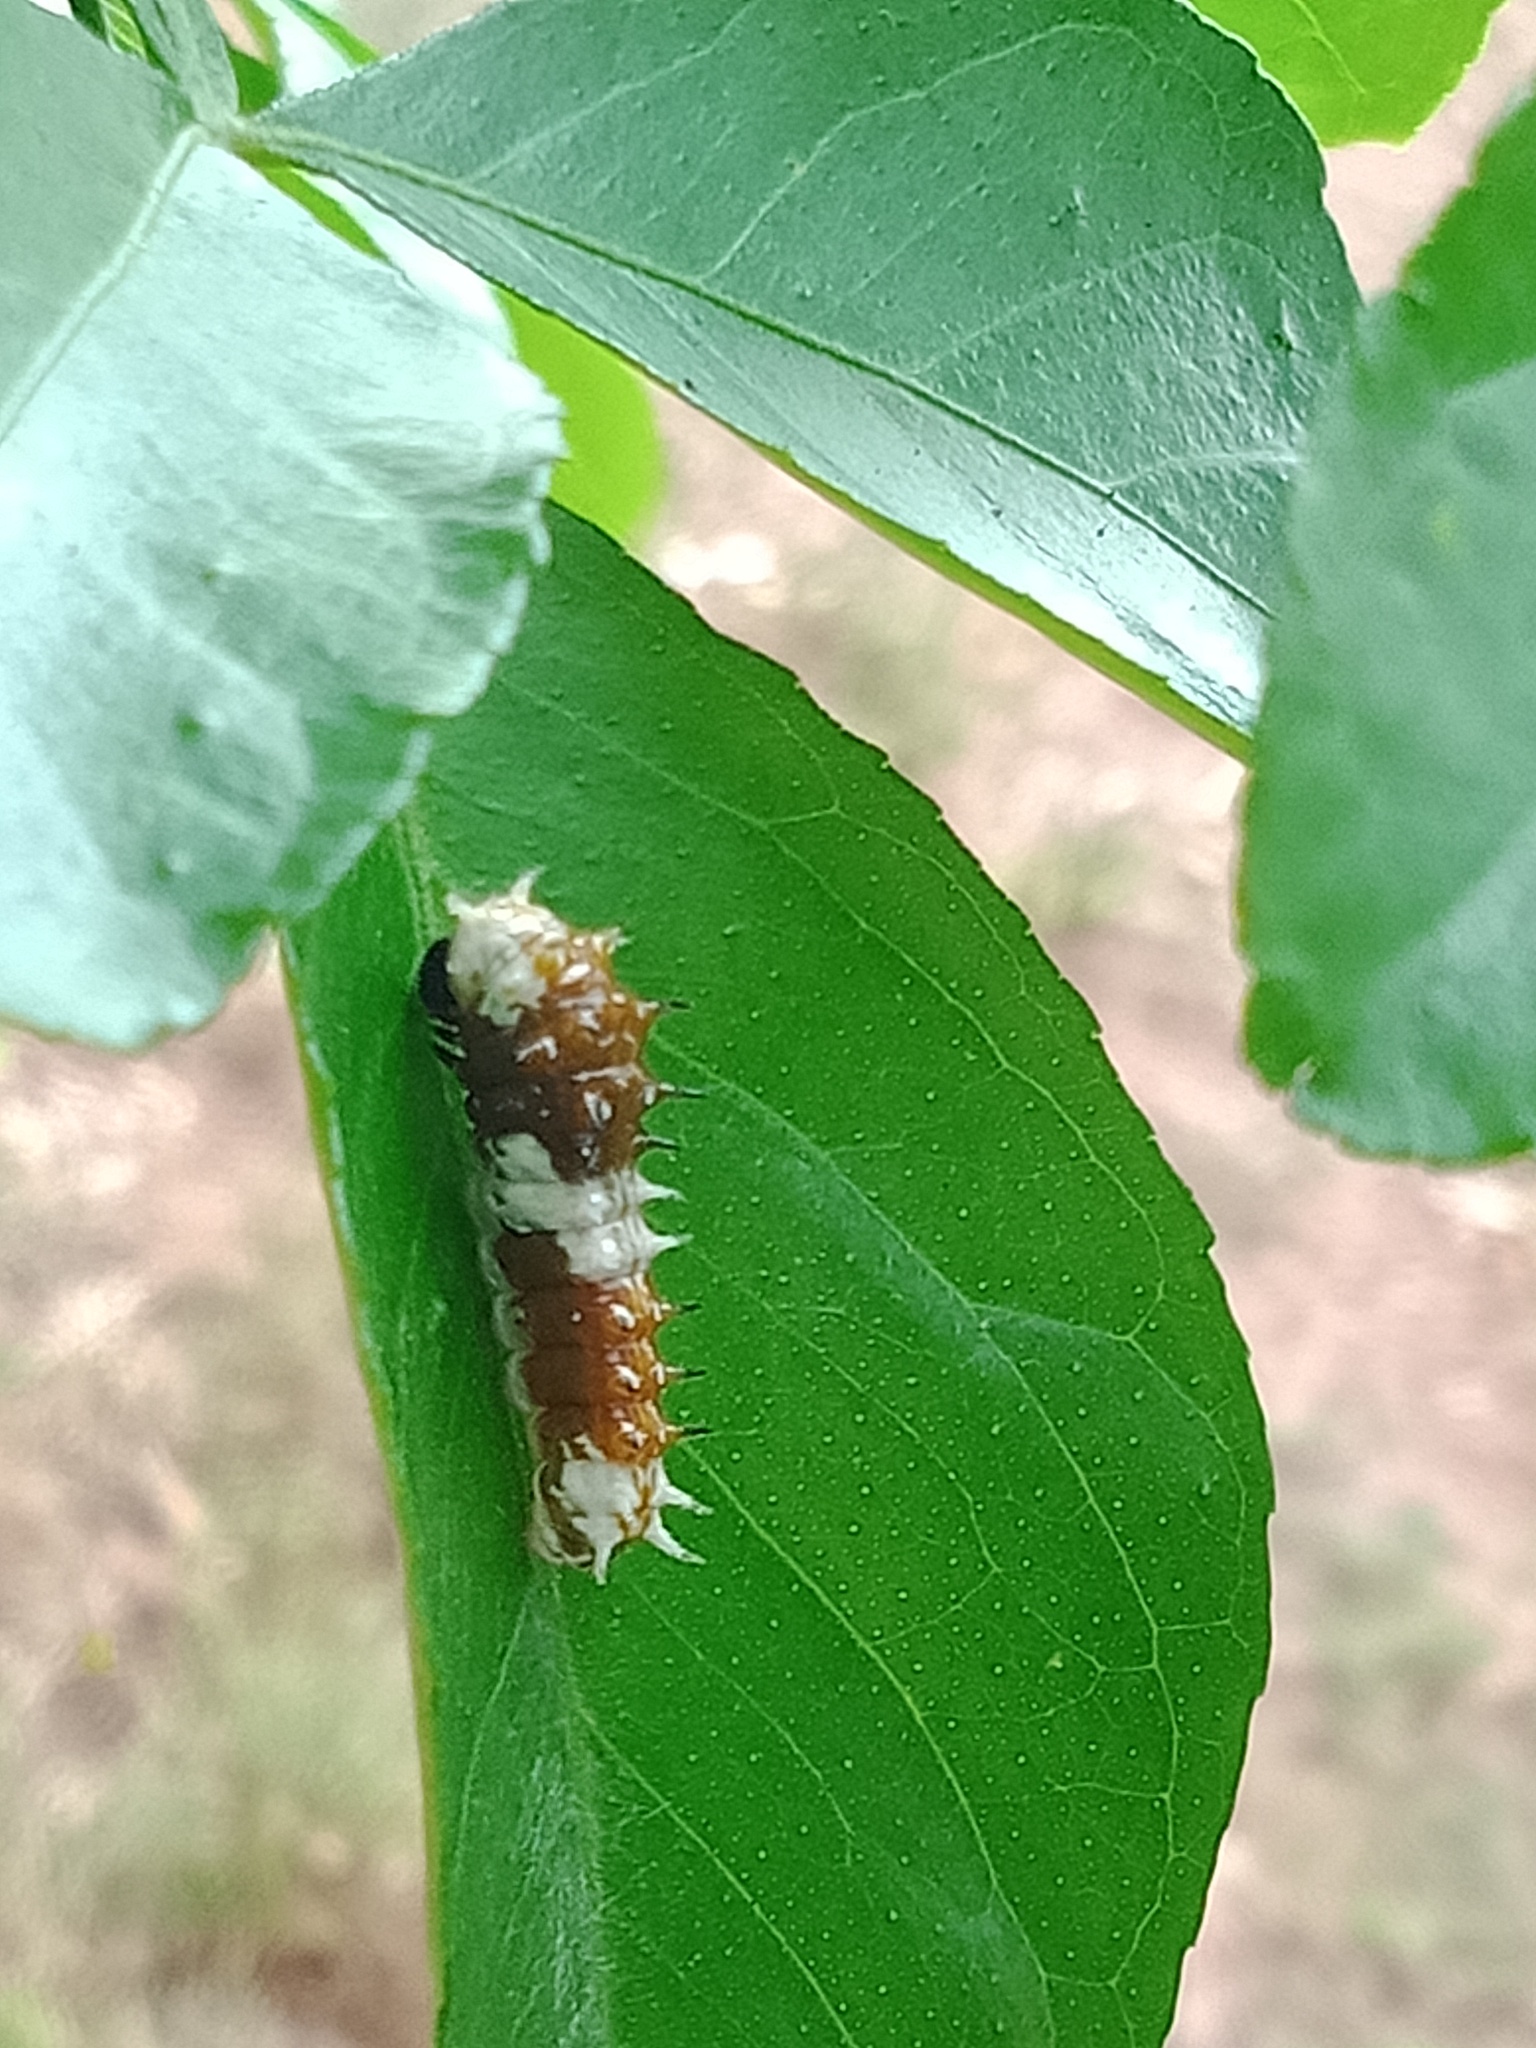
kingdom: Animalia
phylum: Arthropoda
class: Insecta
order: Lepidoptera
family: Papilionidae
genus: Papilio
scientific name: Papilio aegeus
